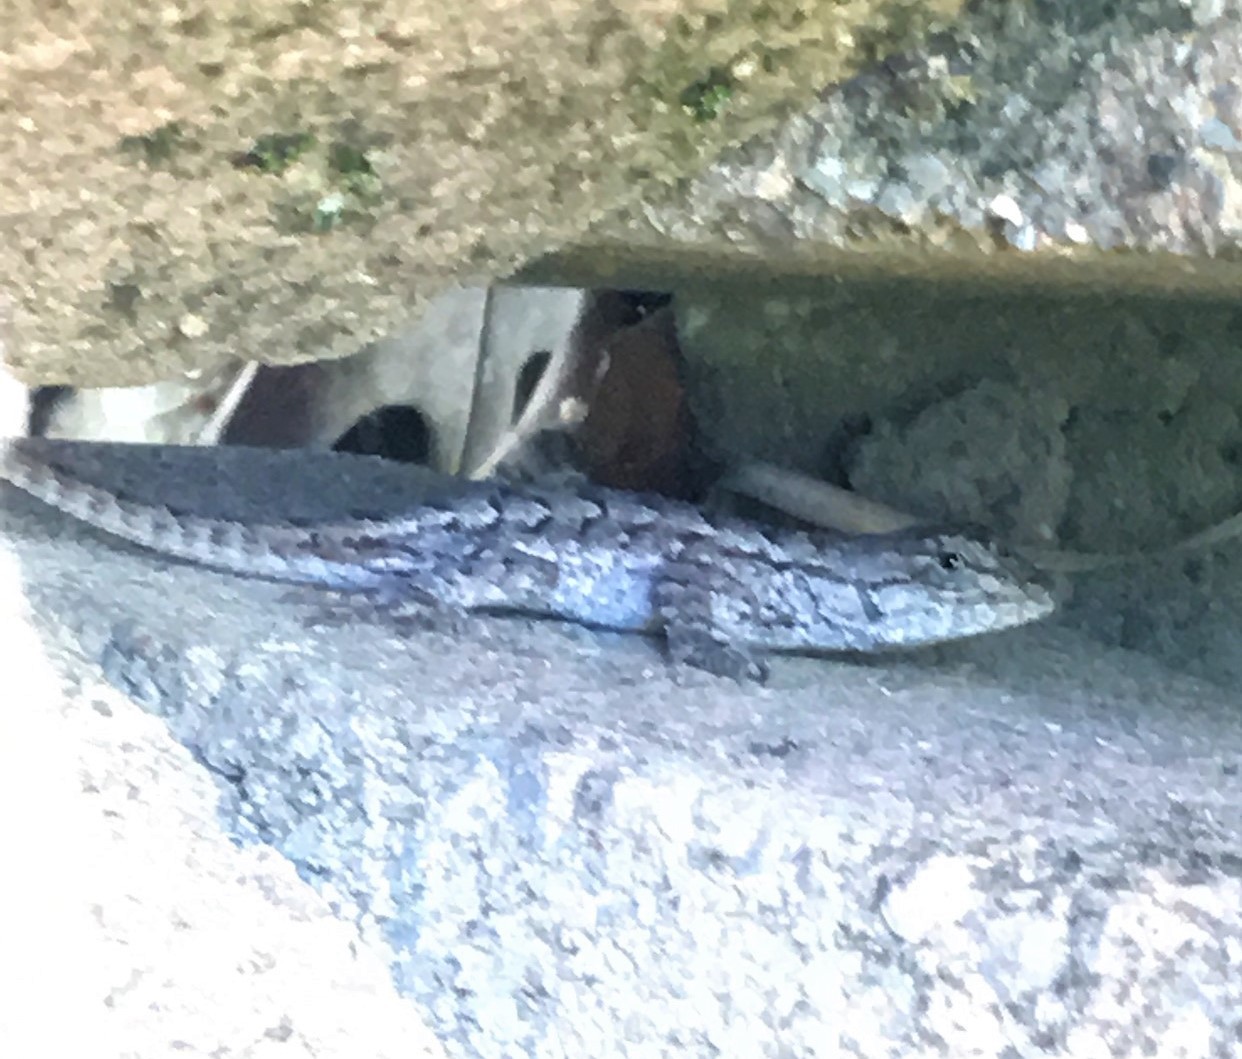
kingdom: Animalia
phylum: Chordata
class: Squamata
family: Phrynosomatidae
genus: Sceloporus
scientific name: Sceloporus consobrinus
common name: Southern prairie lizard
